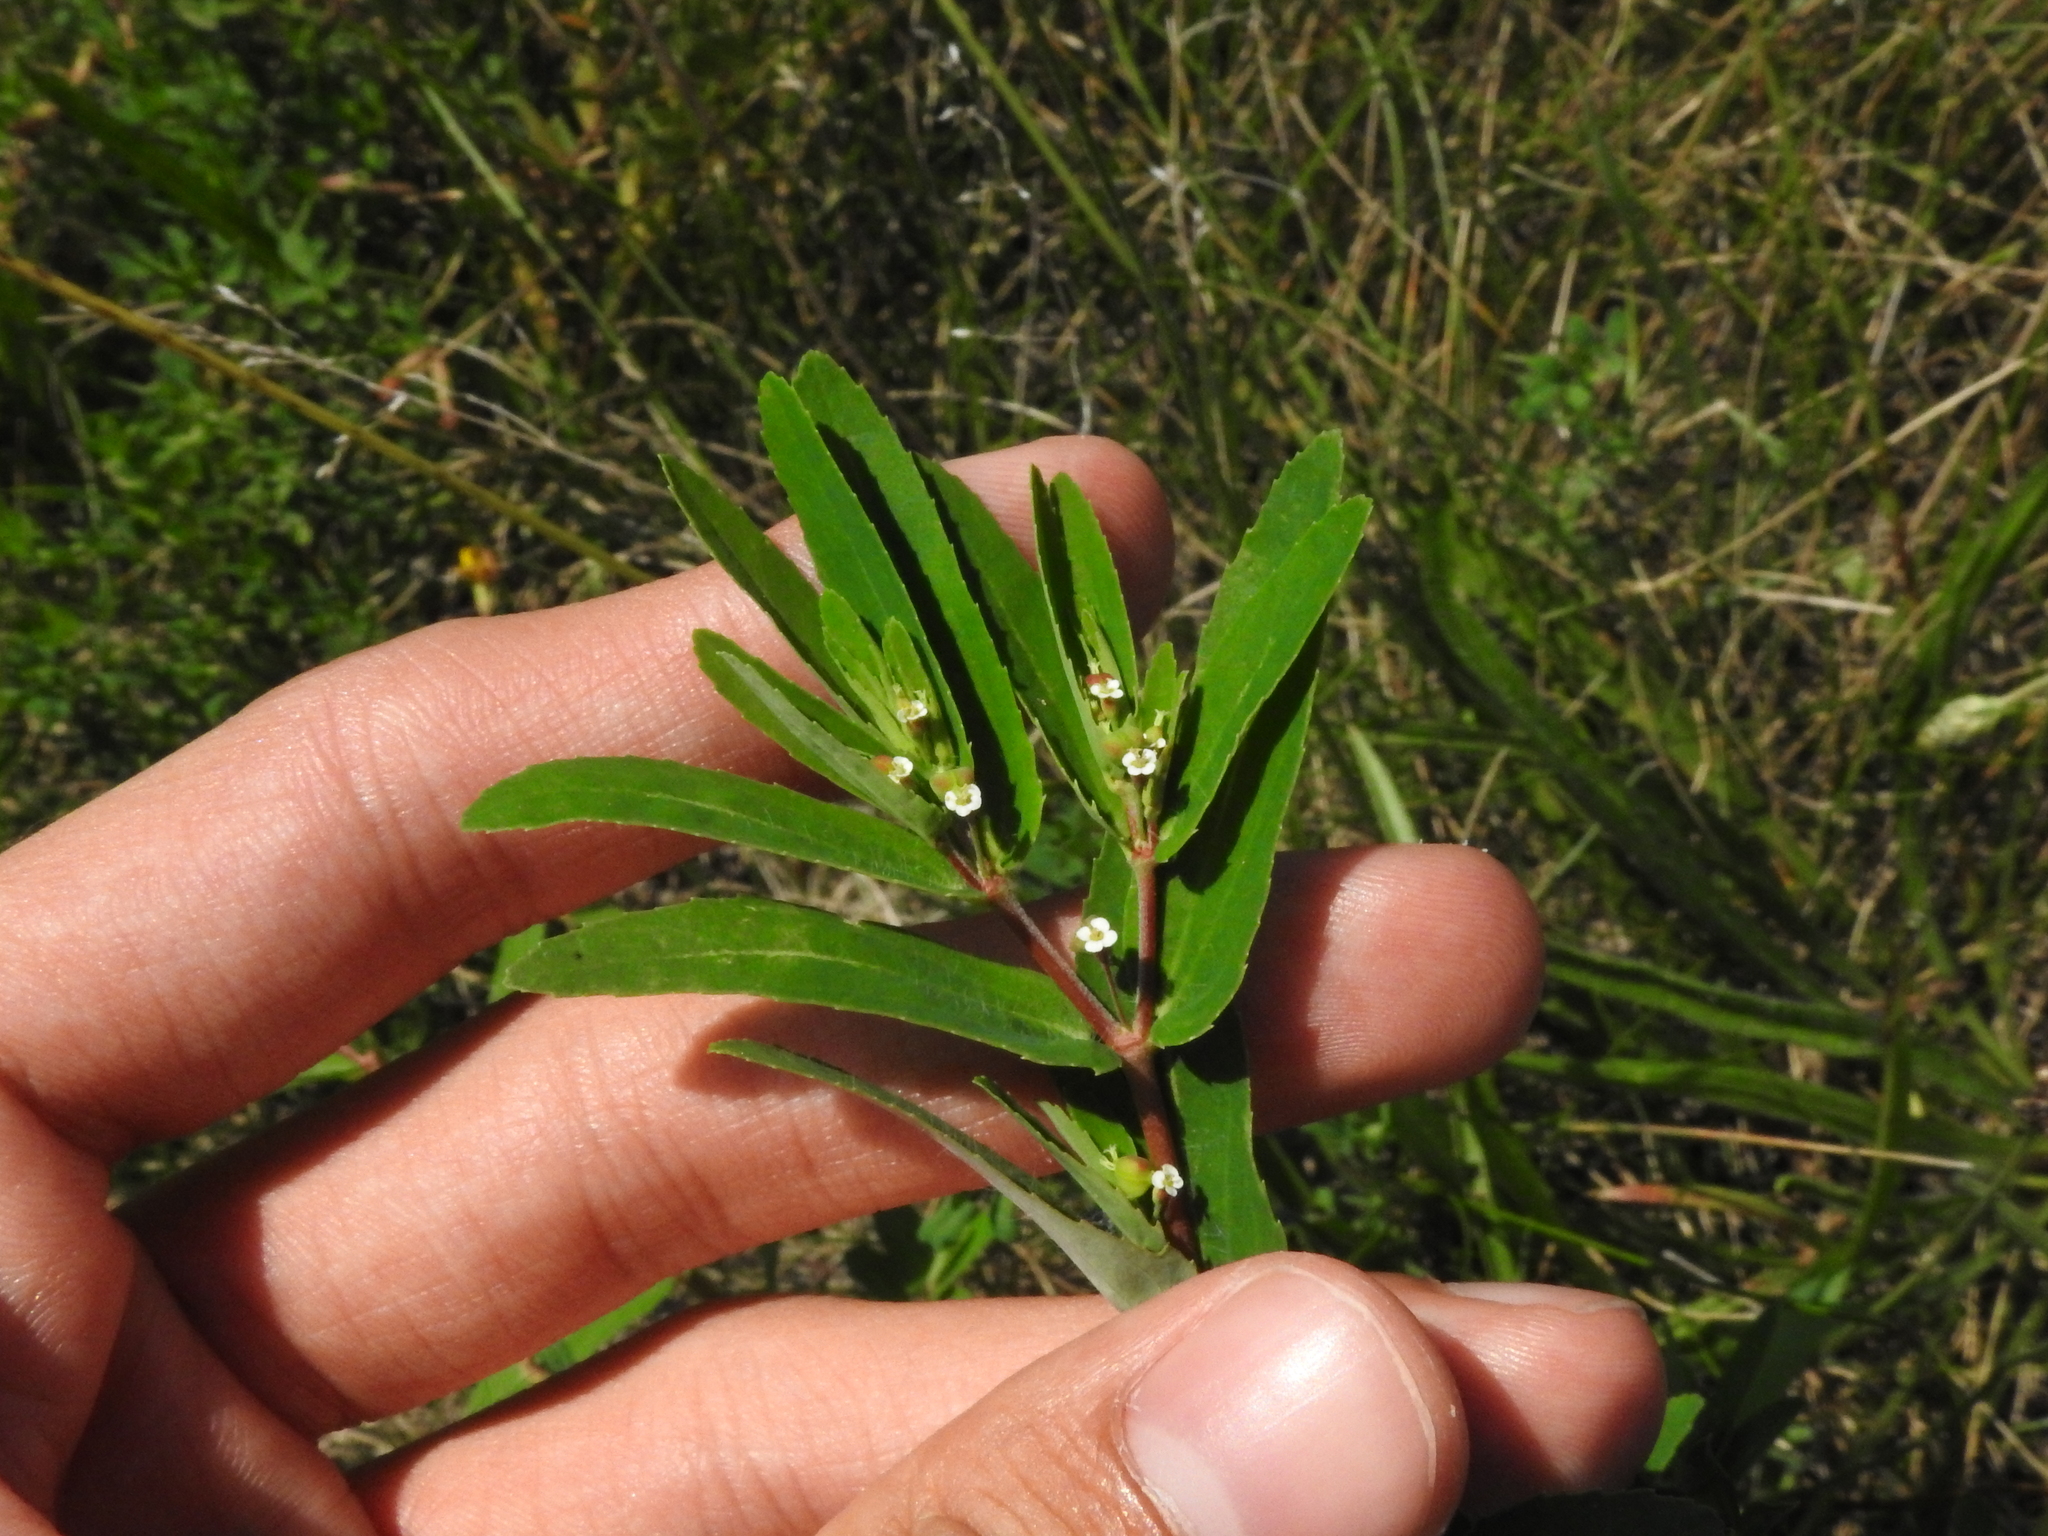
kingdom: Plantae
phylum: Tracheophyta
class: Magnoliopsida
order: Malpighiales
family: Euphorbiaceae
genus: Euphorbia
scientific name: Euphorbia nutans
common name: Eyebane
